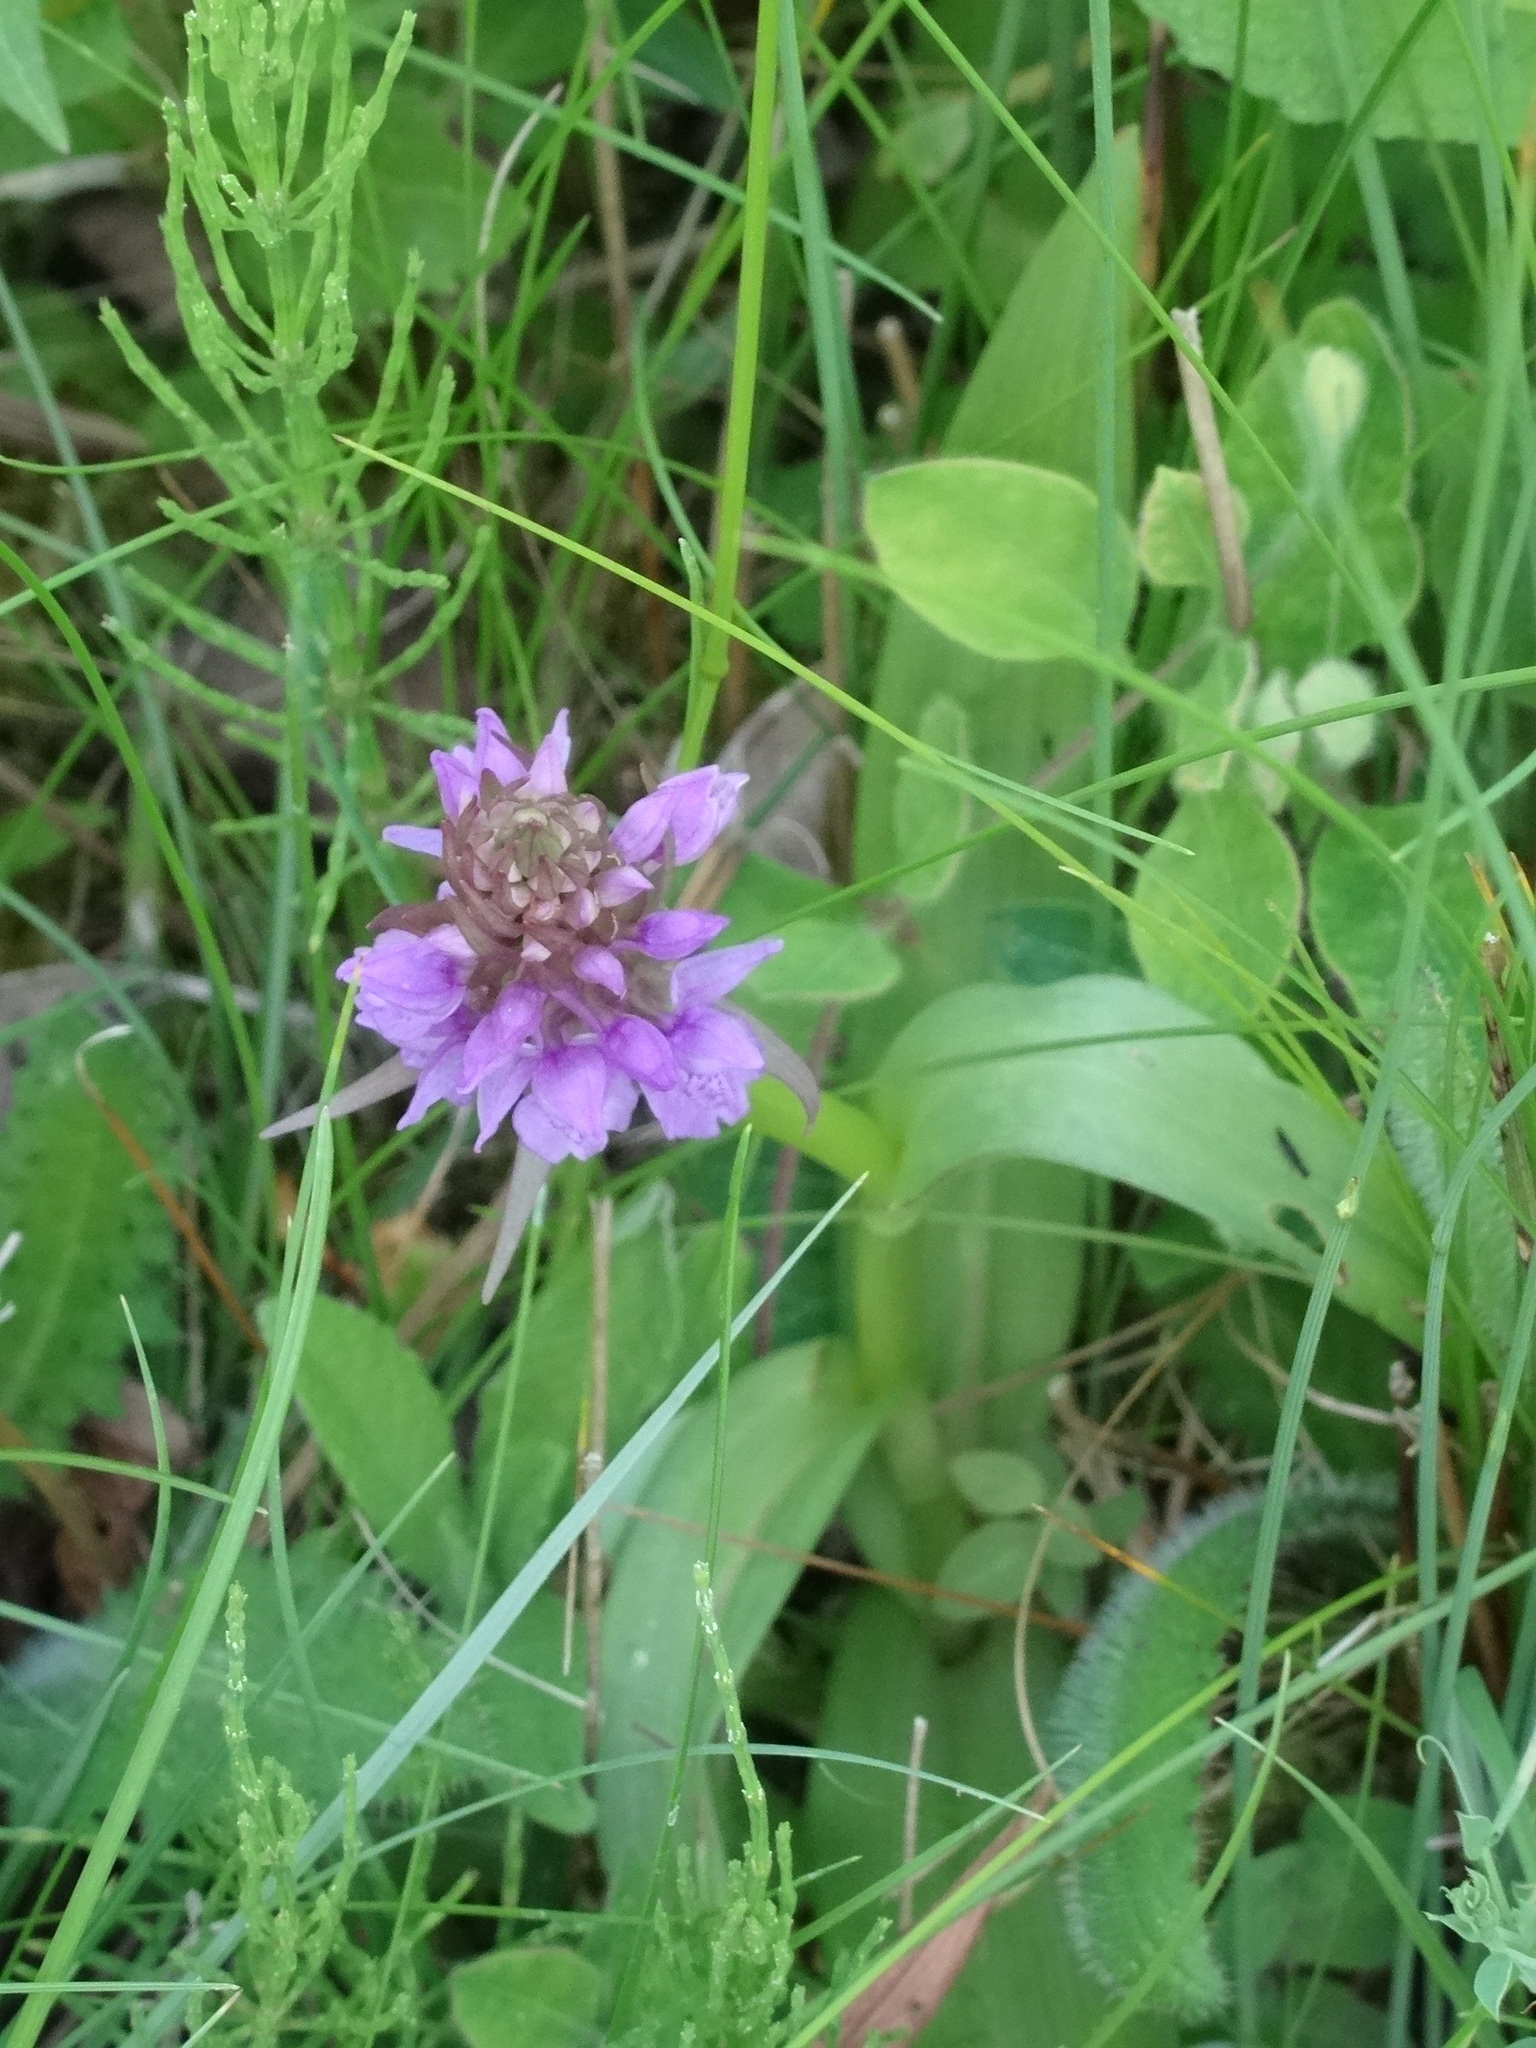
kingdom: Plantae
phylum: Tracheophyta
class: Liliopsida
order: Asparagales
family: Orchidaceae
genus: Dactylorhiza
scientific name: Dactylorhiza majalis
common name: Marsh orchid
